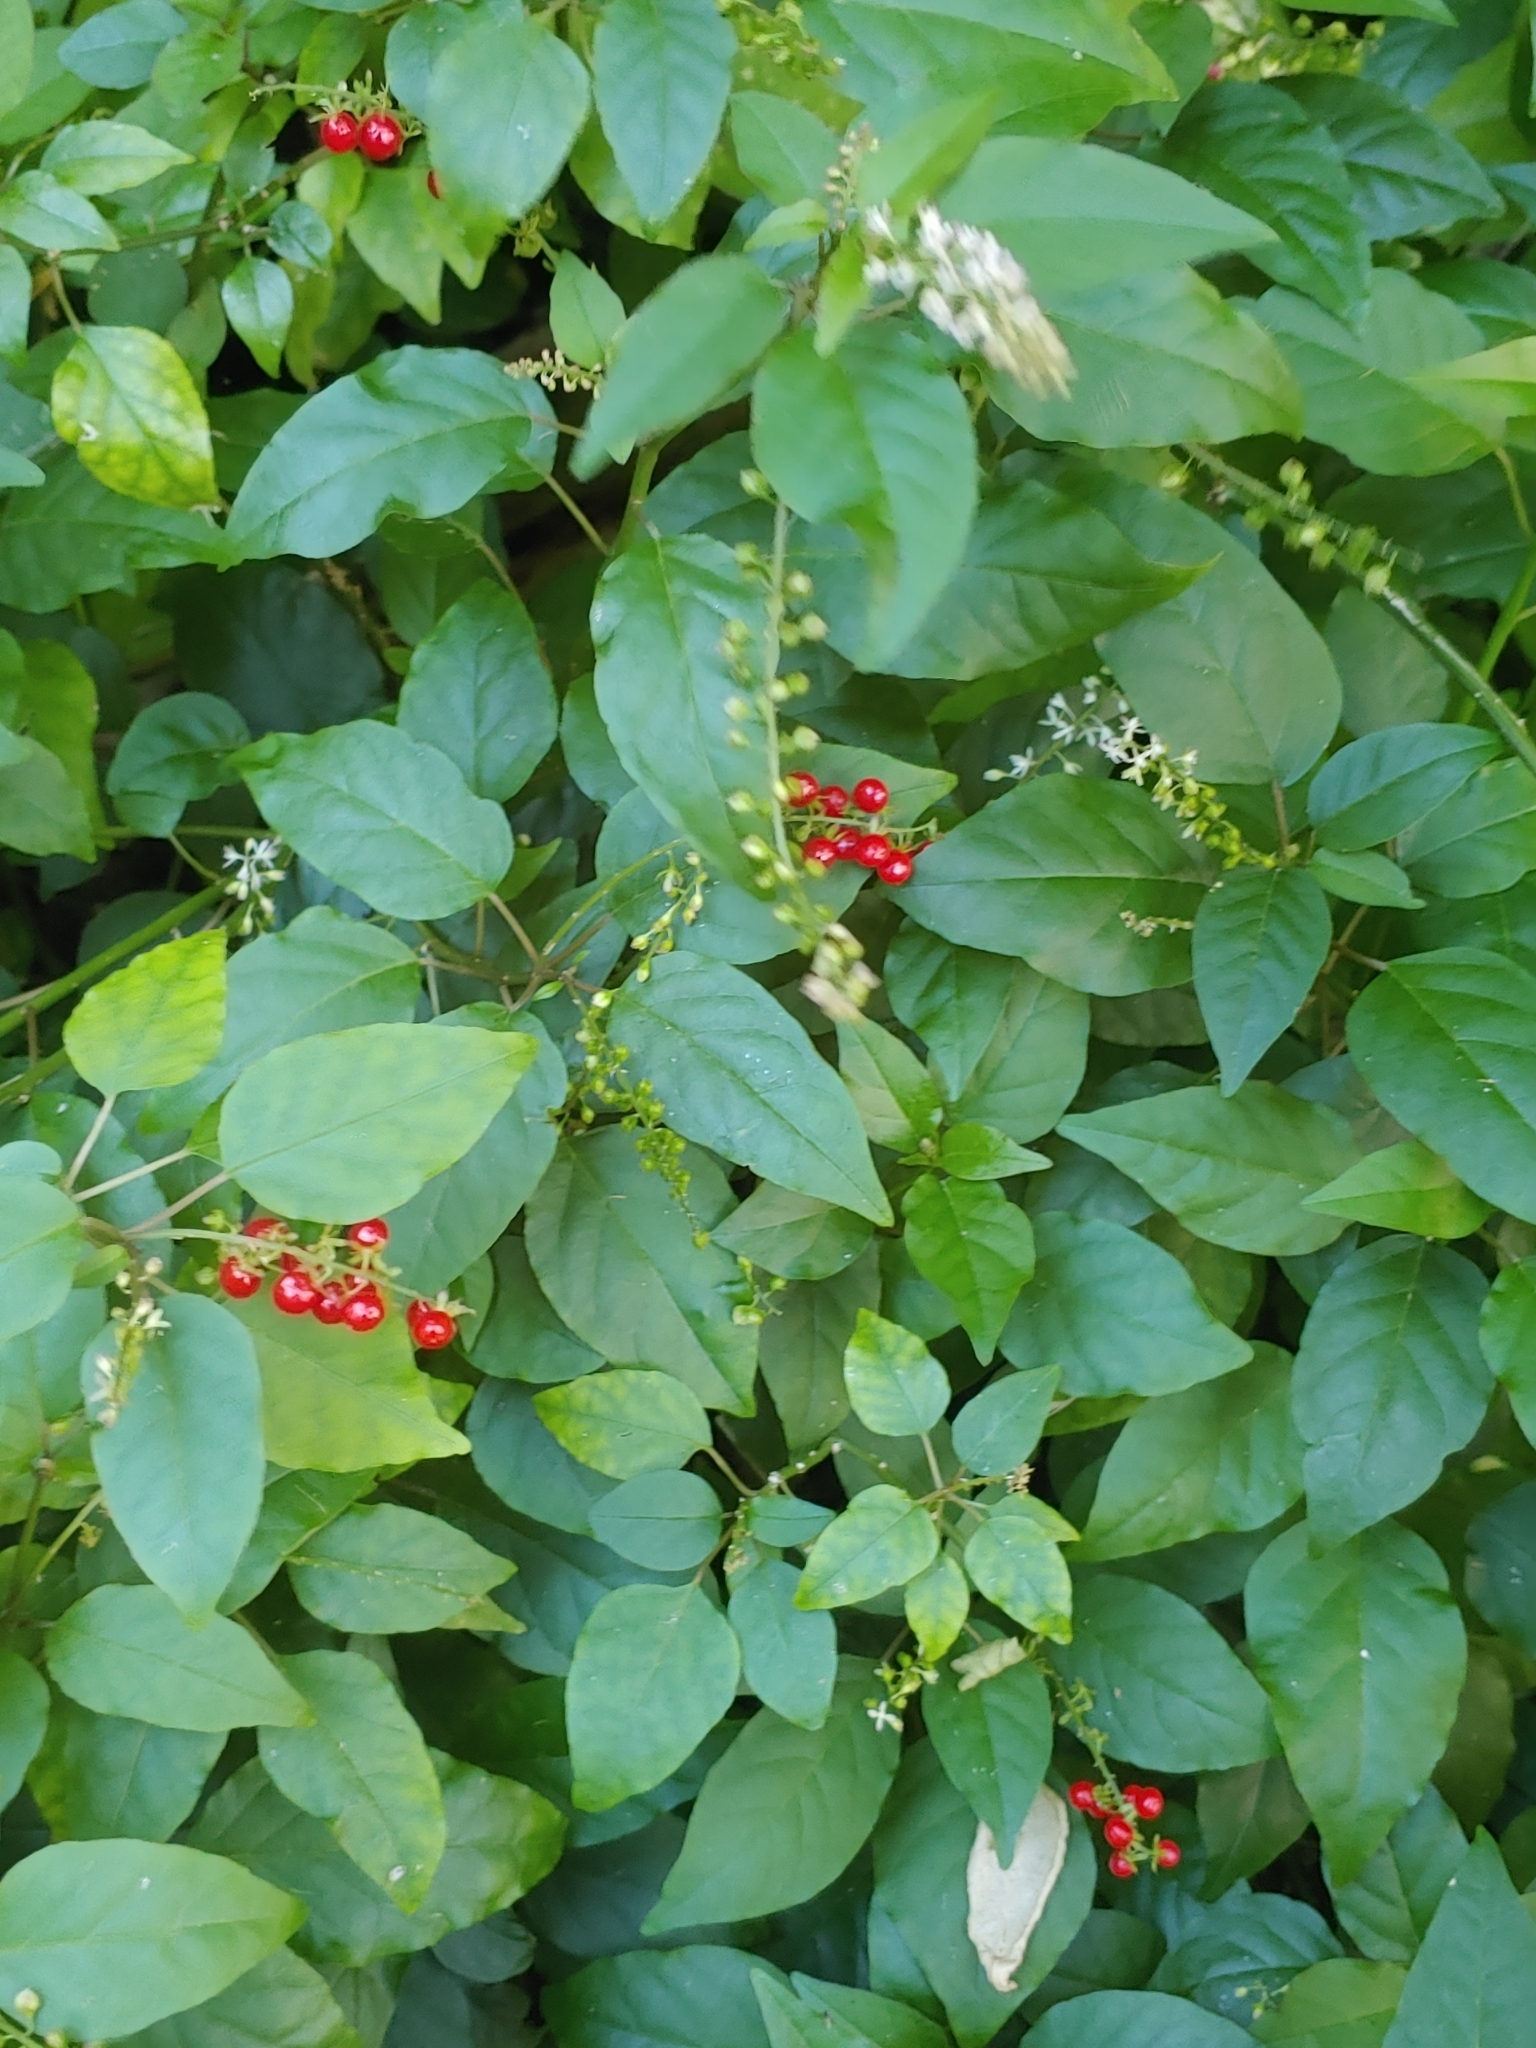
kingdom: Plantae
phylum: Tracheophyta
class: Magnoliopsida
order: Caryophyllales
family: Phytolaccaceae
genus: Rivina
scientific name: Rivina humilis
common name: Rougeplant
